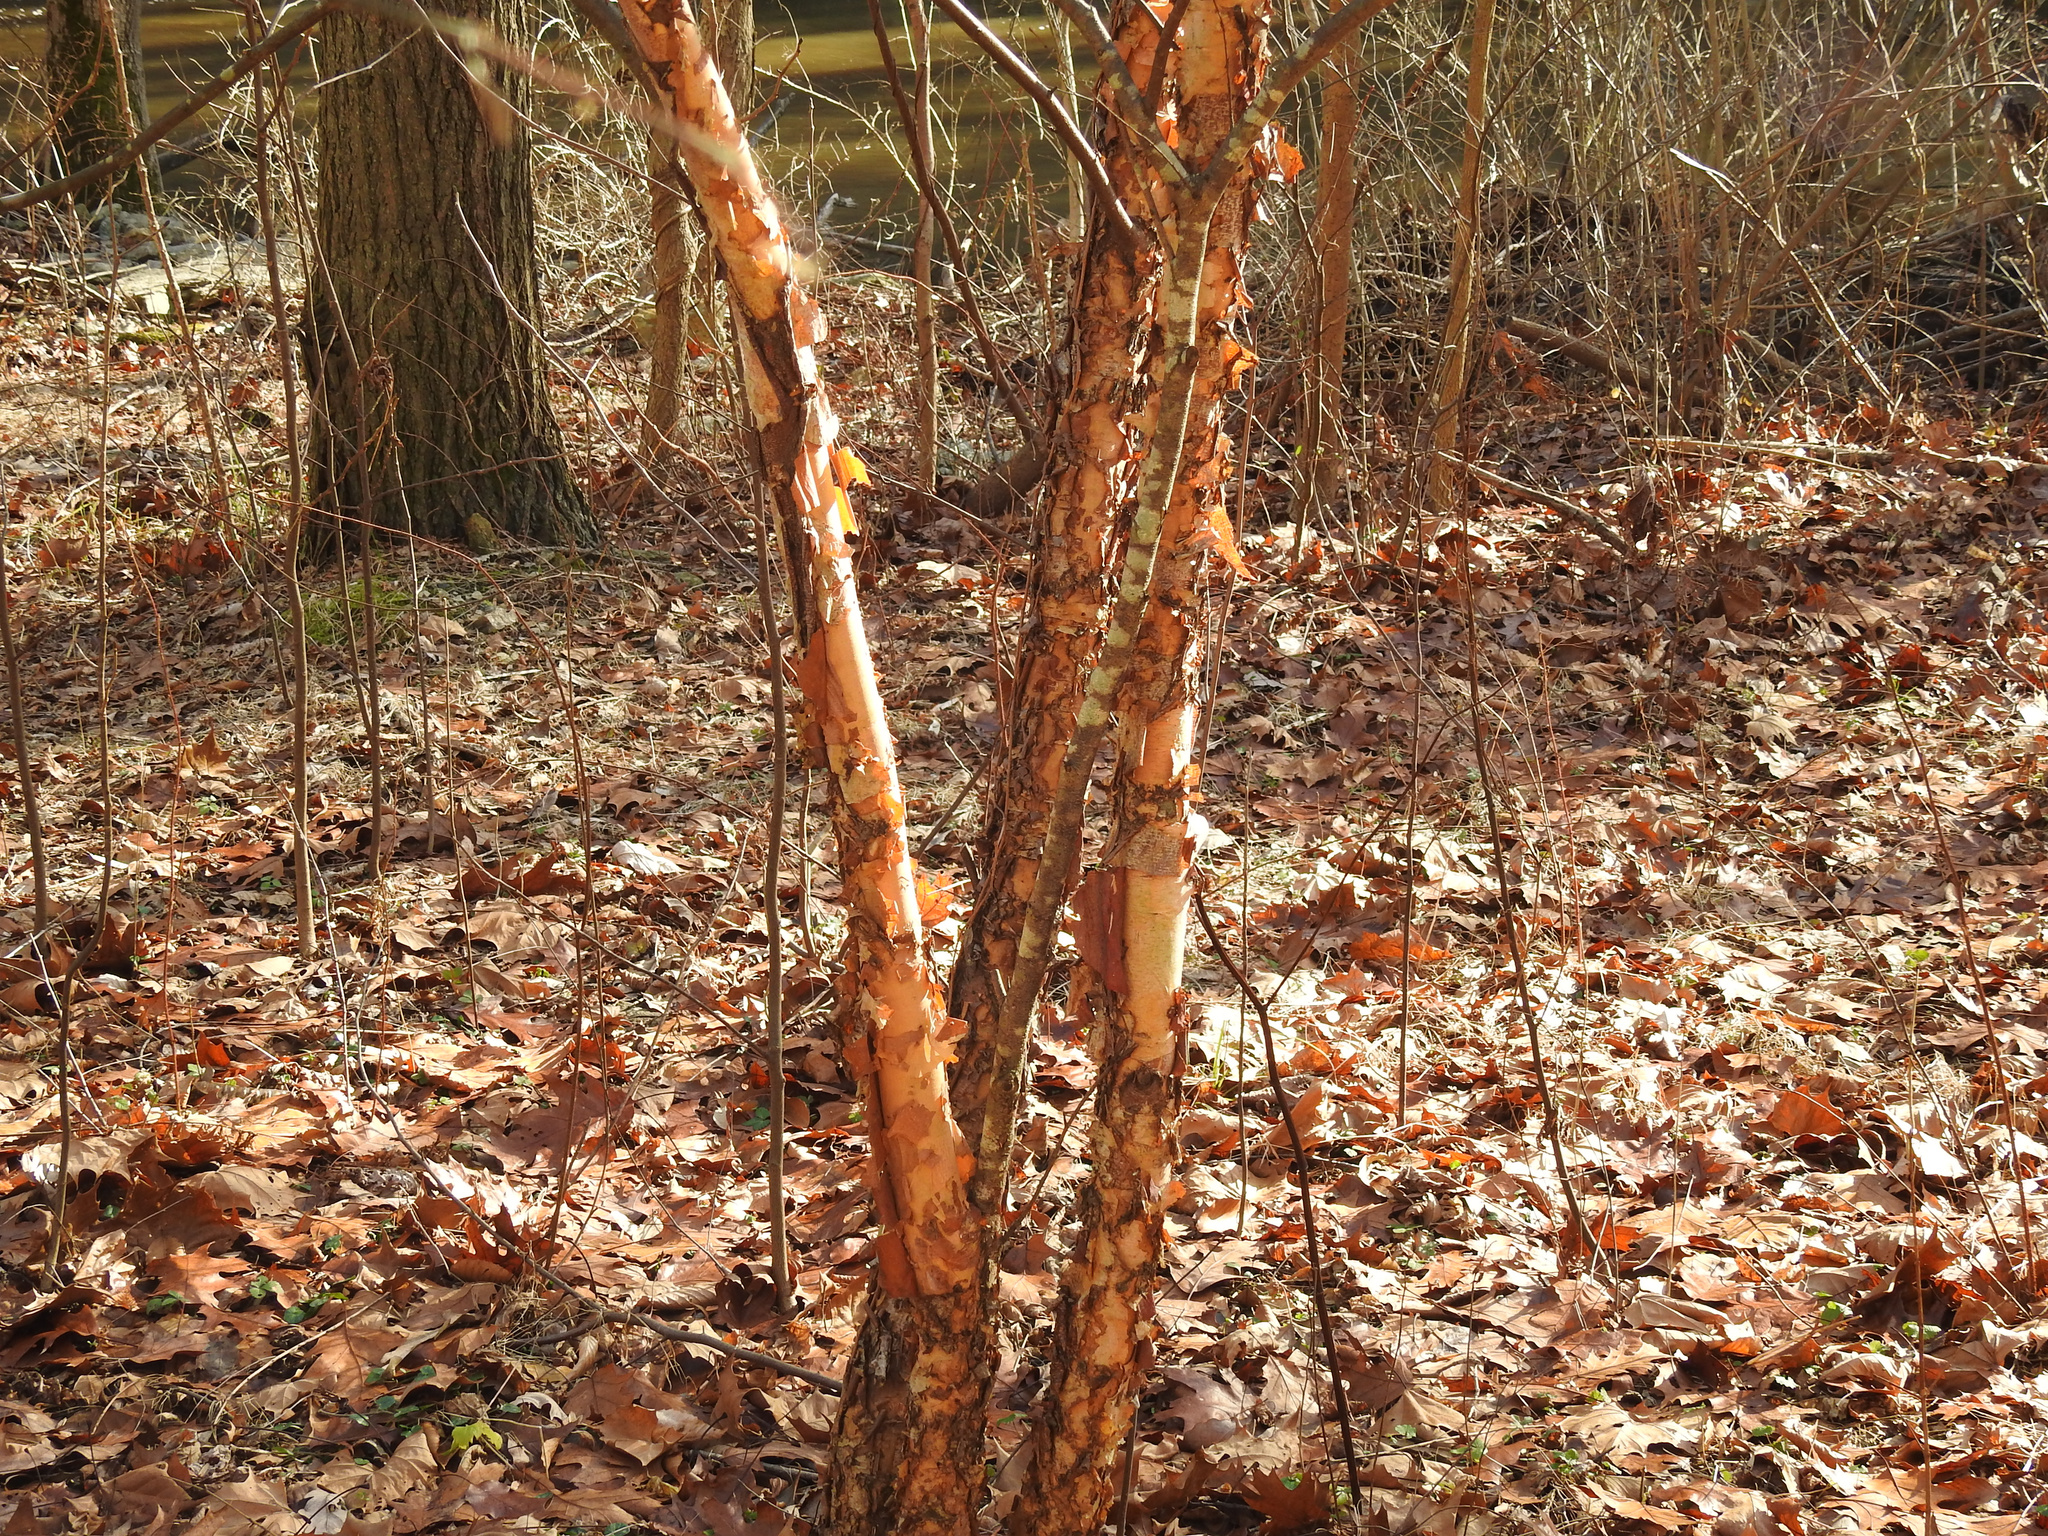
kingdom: Plantae
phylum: Tracheophyta
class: Magnoliopsida
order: Fagales
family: Betulaceae
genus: Betula
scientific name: Betula nigra
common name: Black birch
